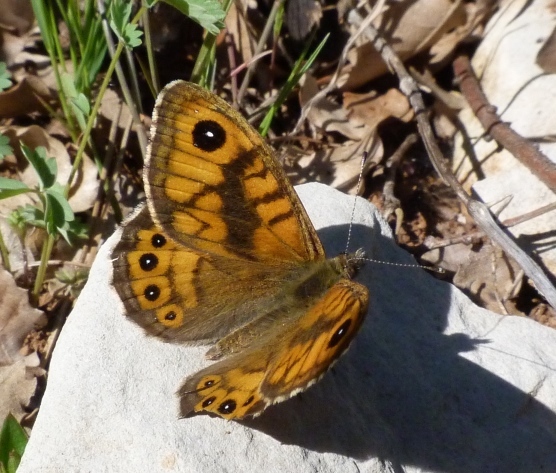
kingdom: Animalia
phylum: Arthropoda
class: Insecta
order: Lepidoptera
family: Nymphalidae
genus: Pararge
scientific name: Pararge Lasiommata megera
